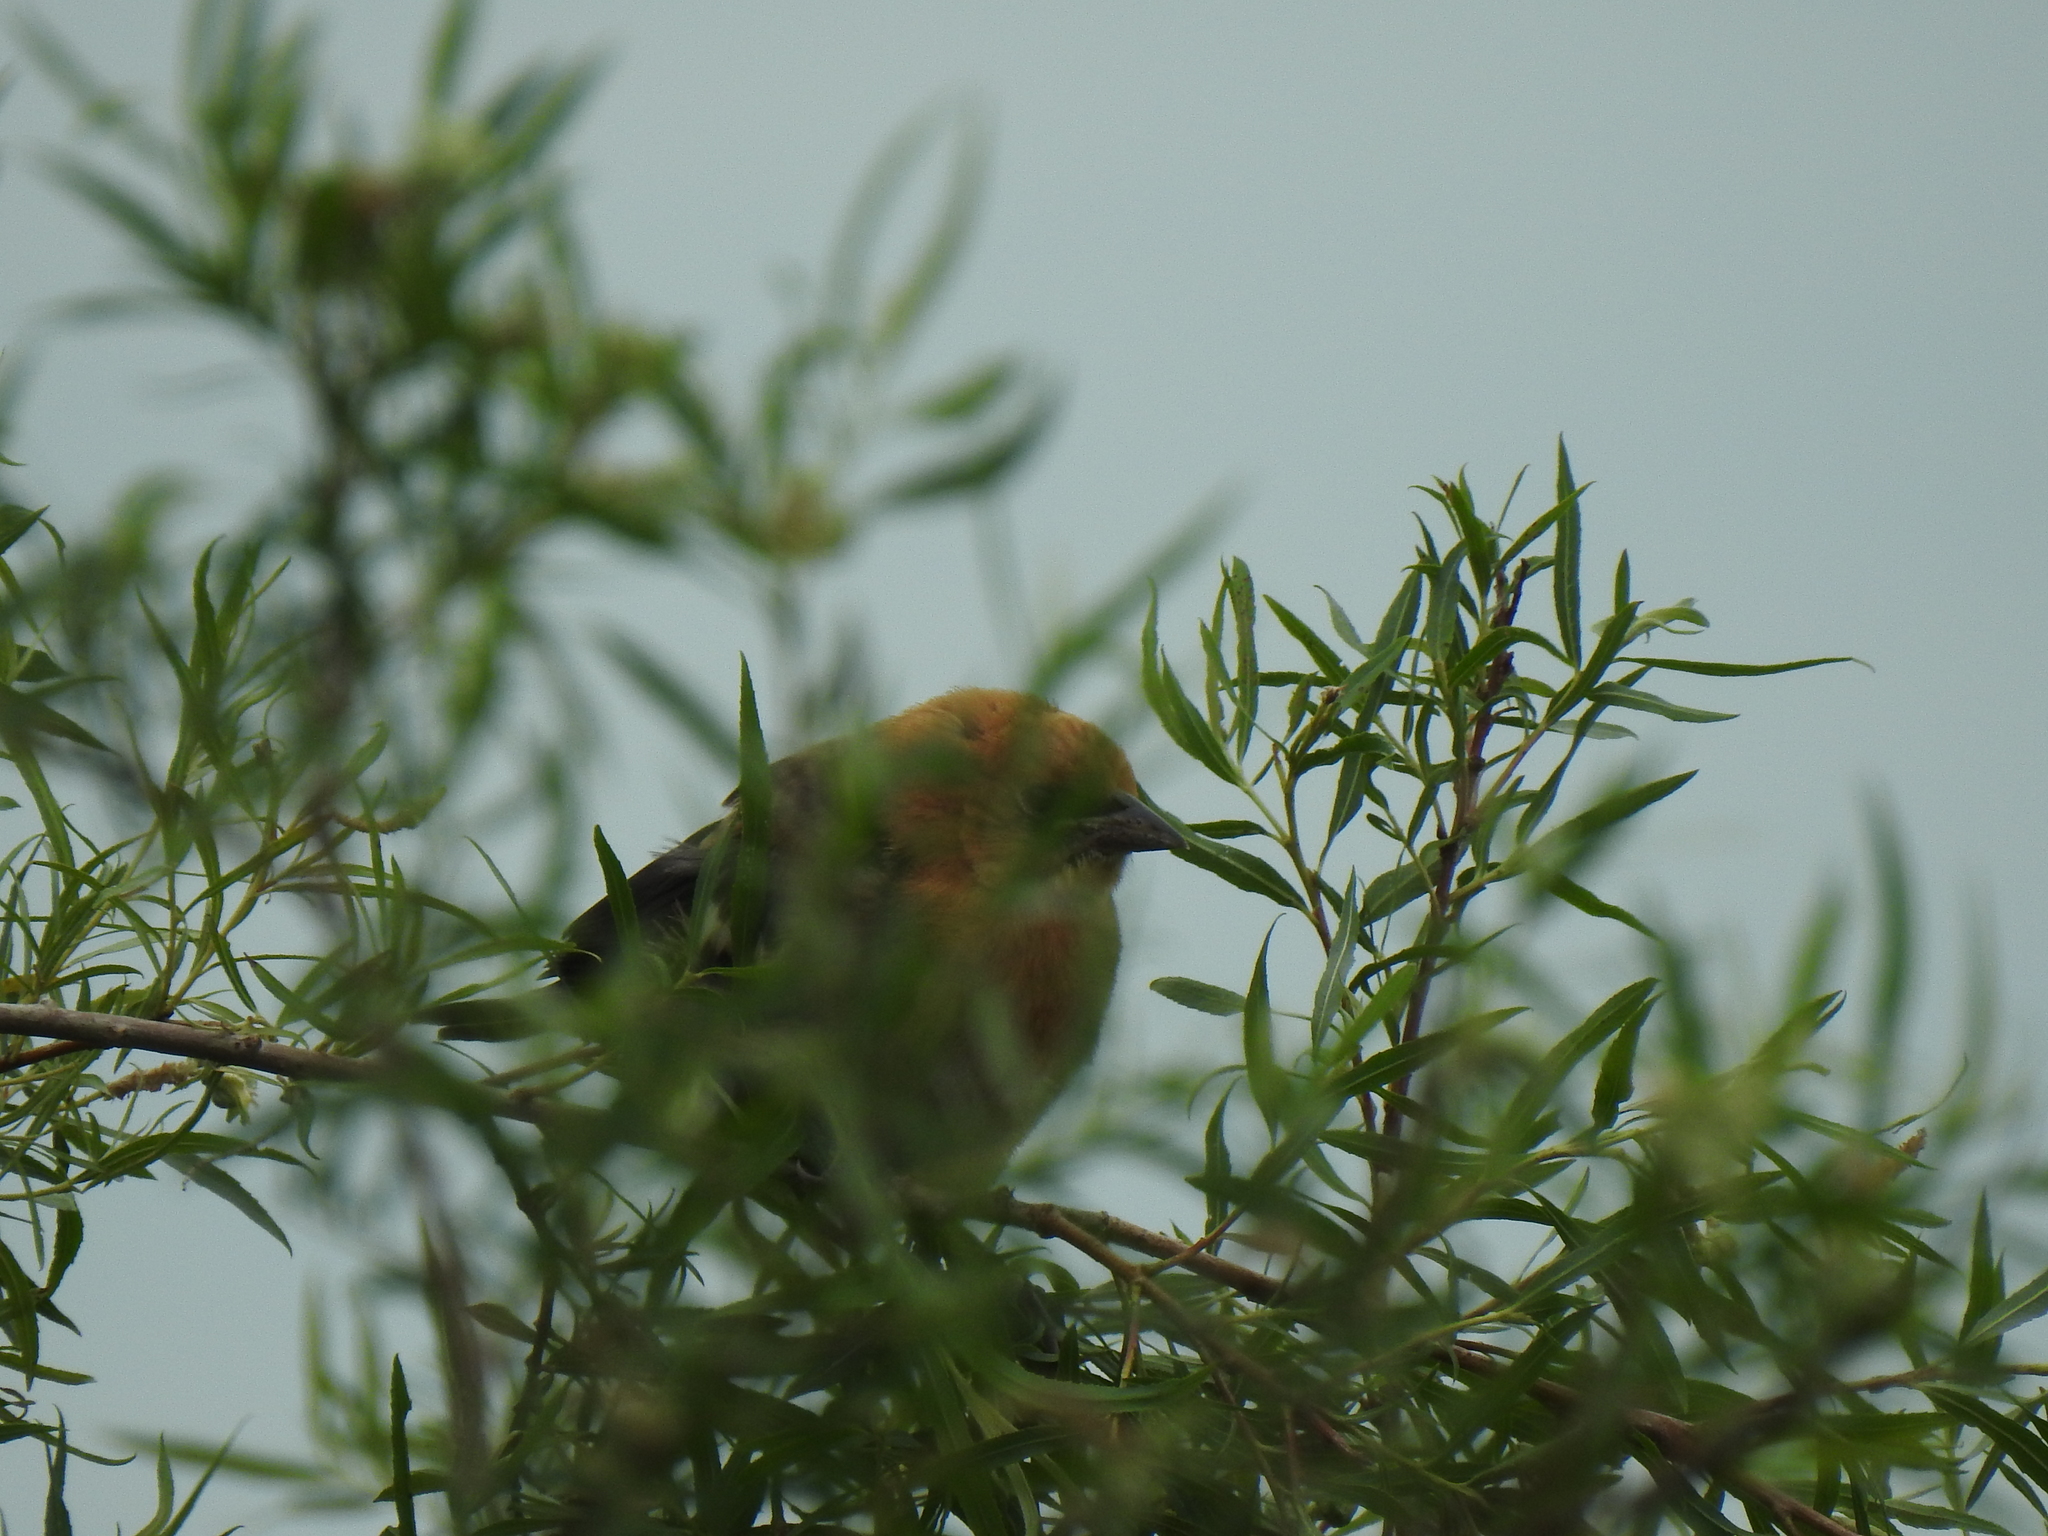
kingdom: Animalia
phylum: Chordata
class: Aves
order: Passeriformes
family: Icteridae
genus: Xanthocephalus
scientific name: Xanthocephalus xanthocephalus
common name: Yellow-headed blackbird
